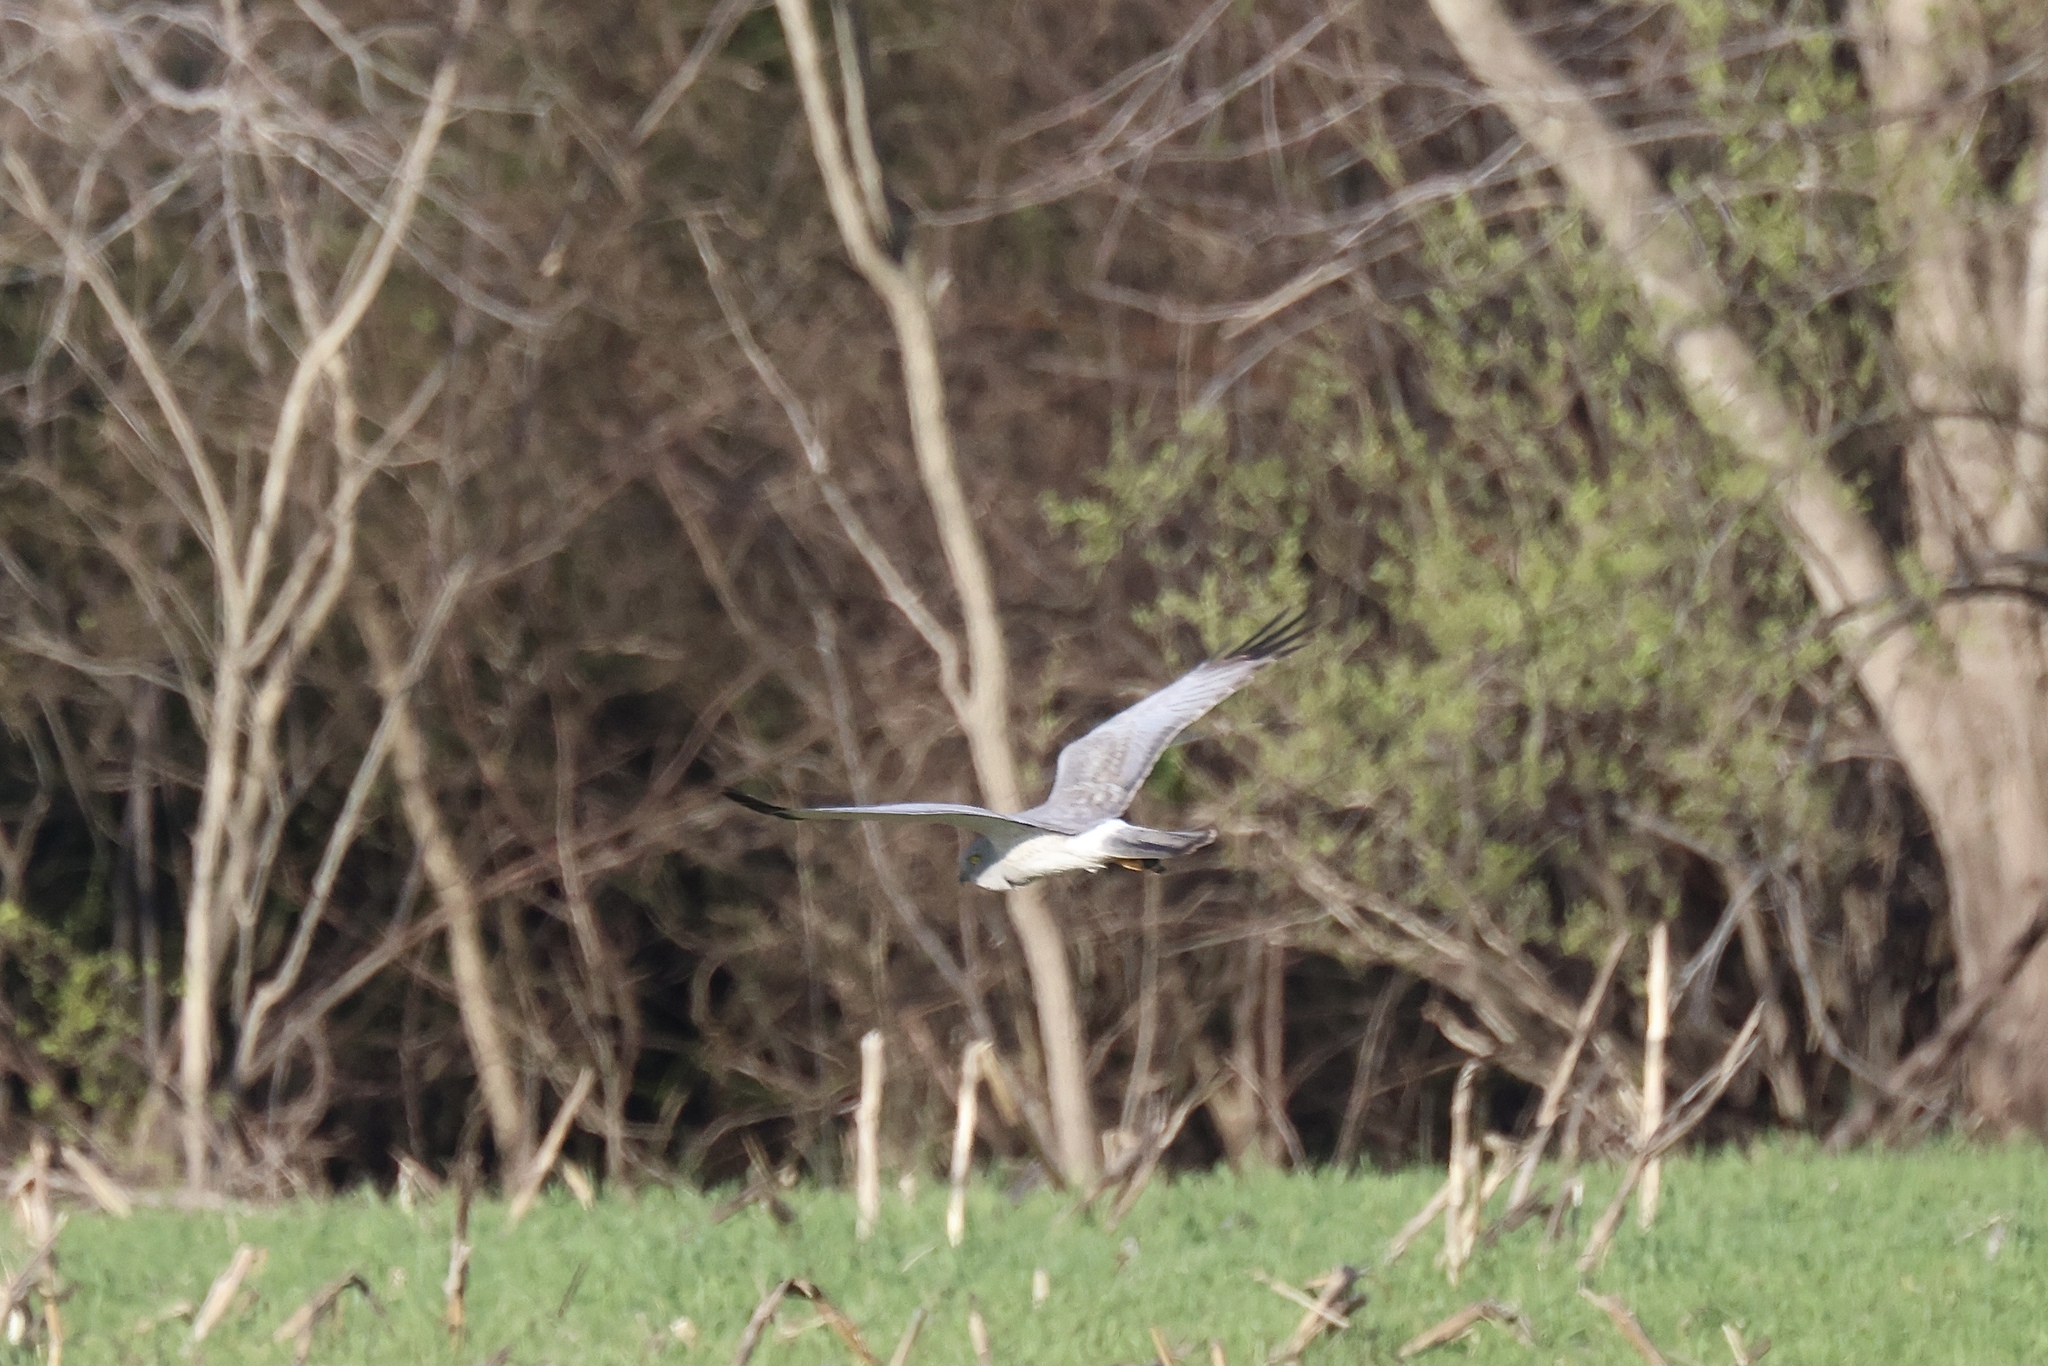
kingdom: Animalia
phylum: Chordata
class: Aves
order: Accipitriformes
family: Accipitridae
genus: Circus
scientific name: Circus cyaneus
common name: Hen harrier
